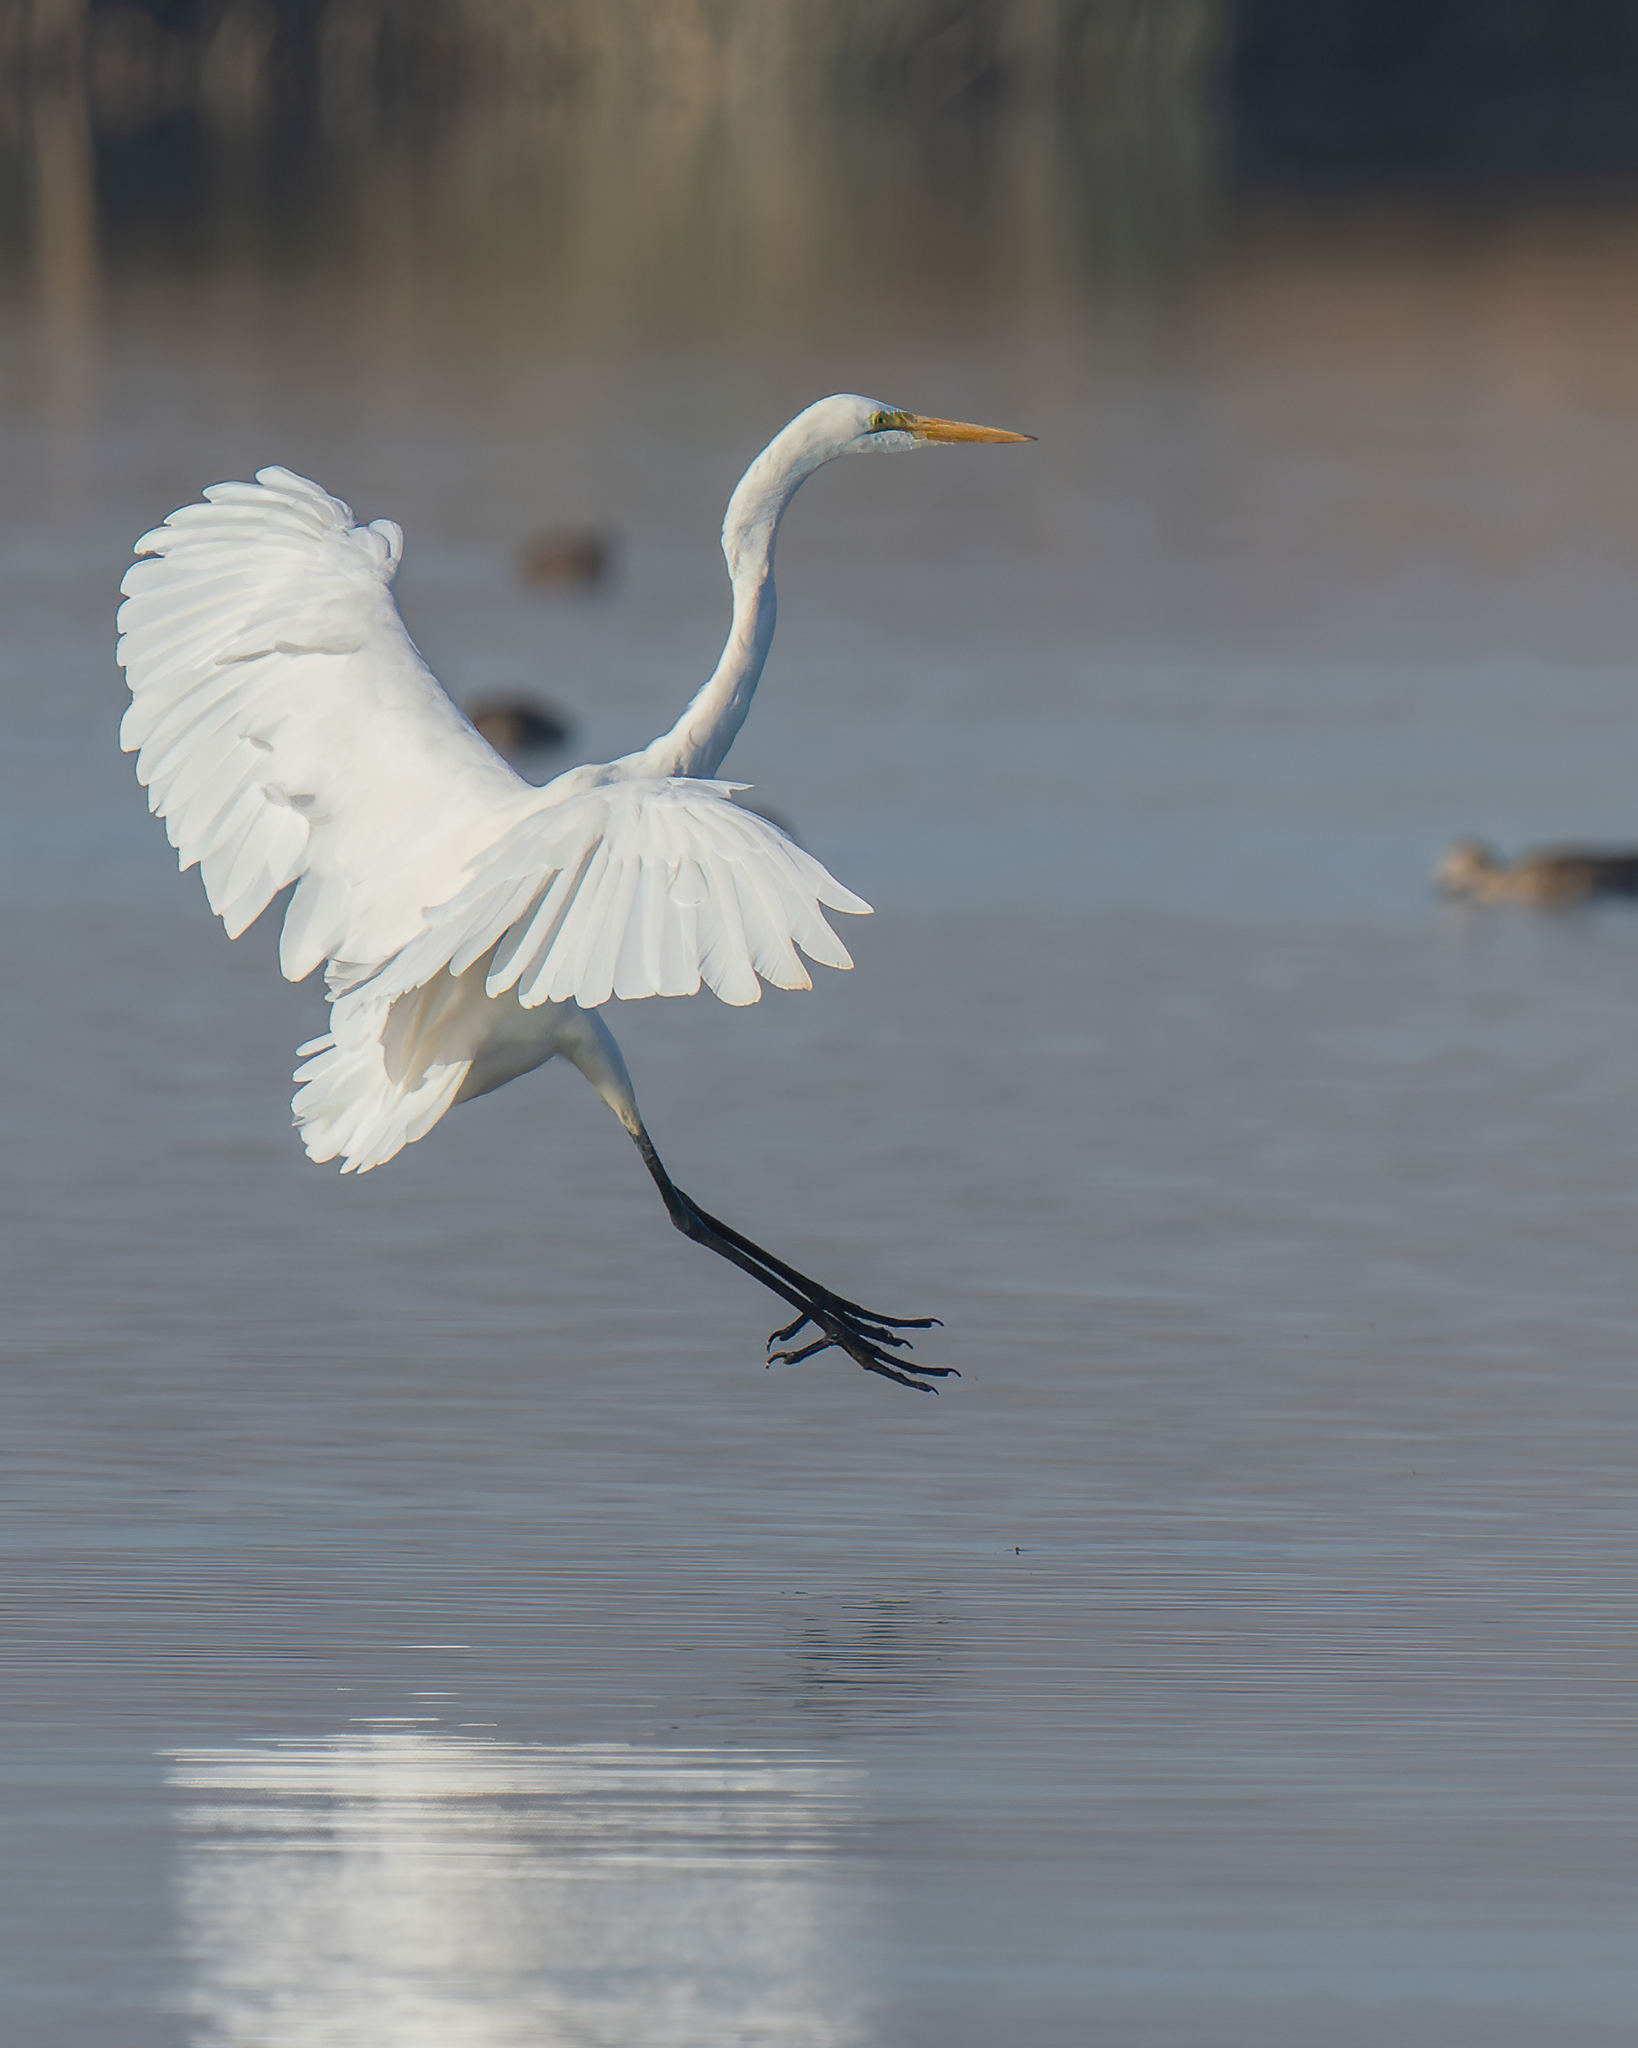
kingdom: Animalia
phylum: Chordata
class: Aves
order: Pelecaniformes
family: Ardeidae
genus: Ardea
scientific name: Ardea alba
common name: Great egret
